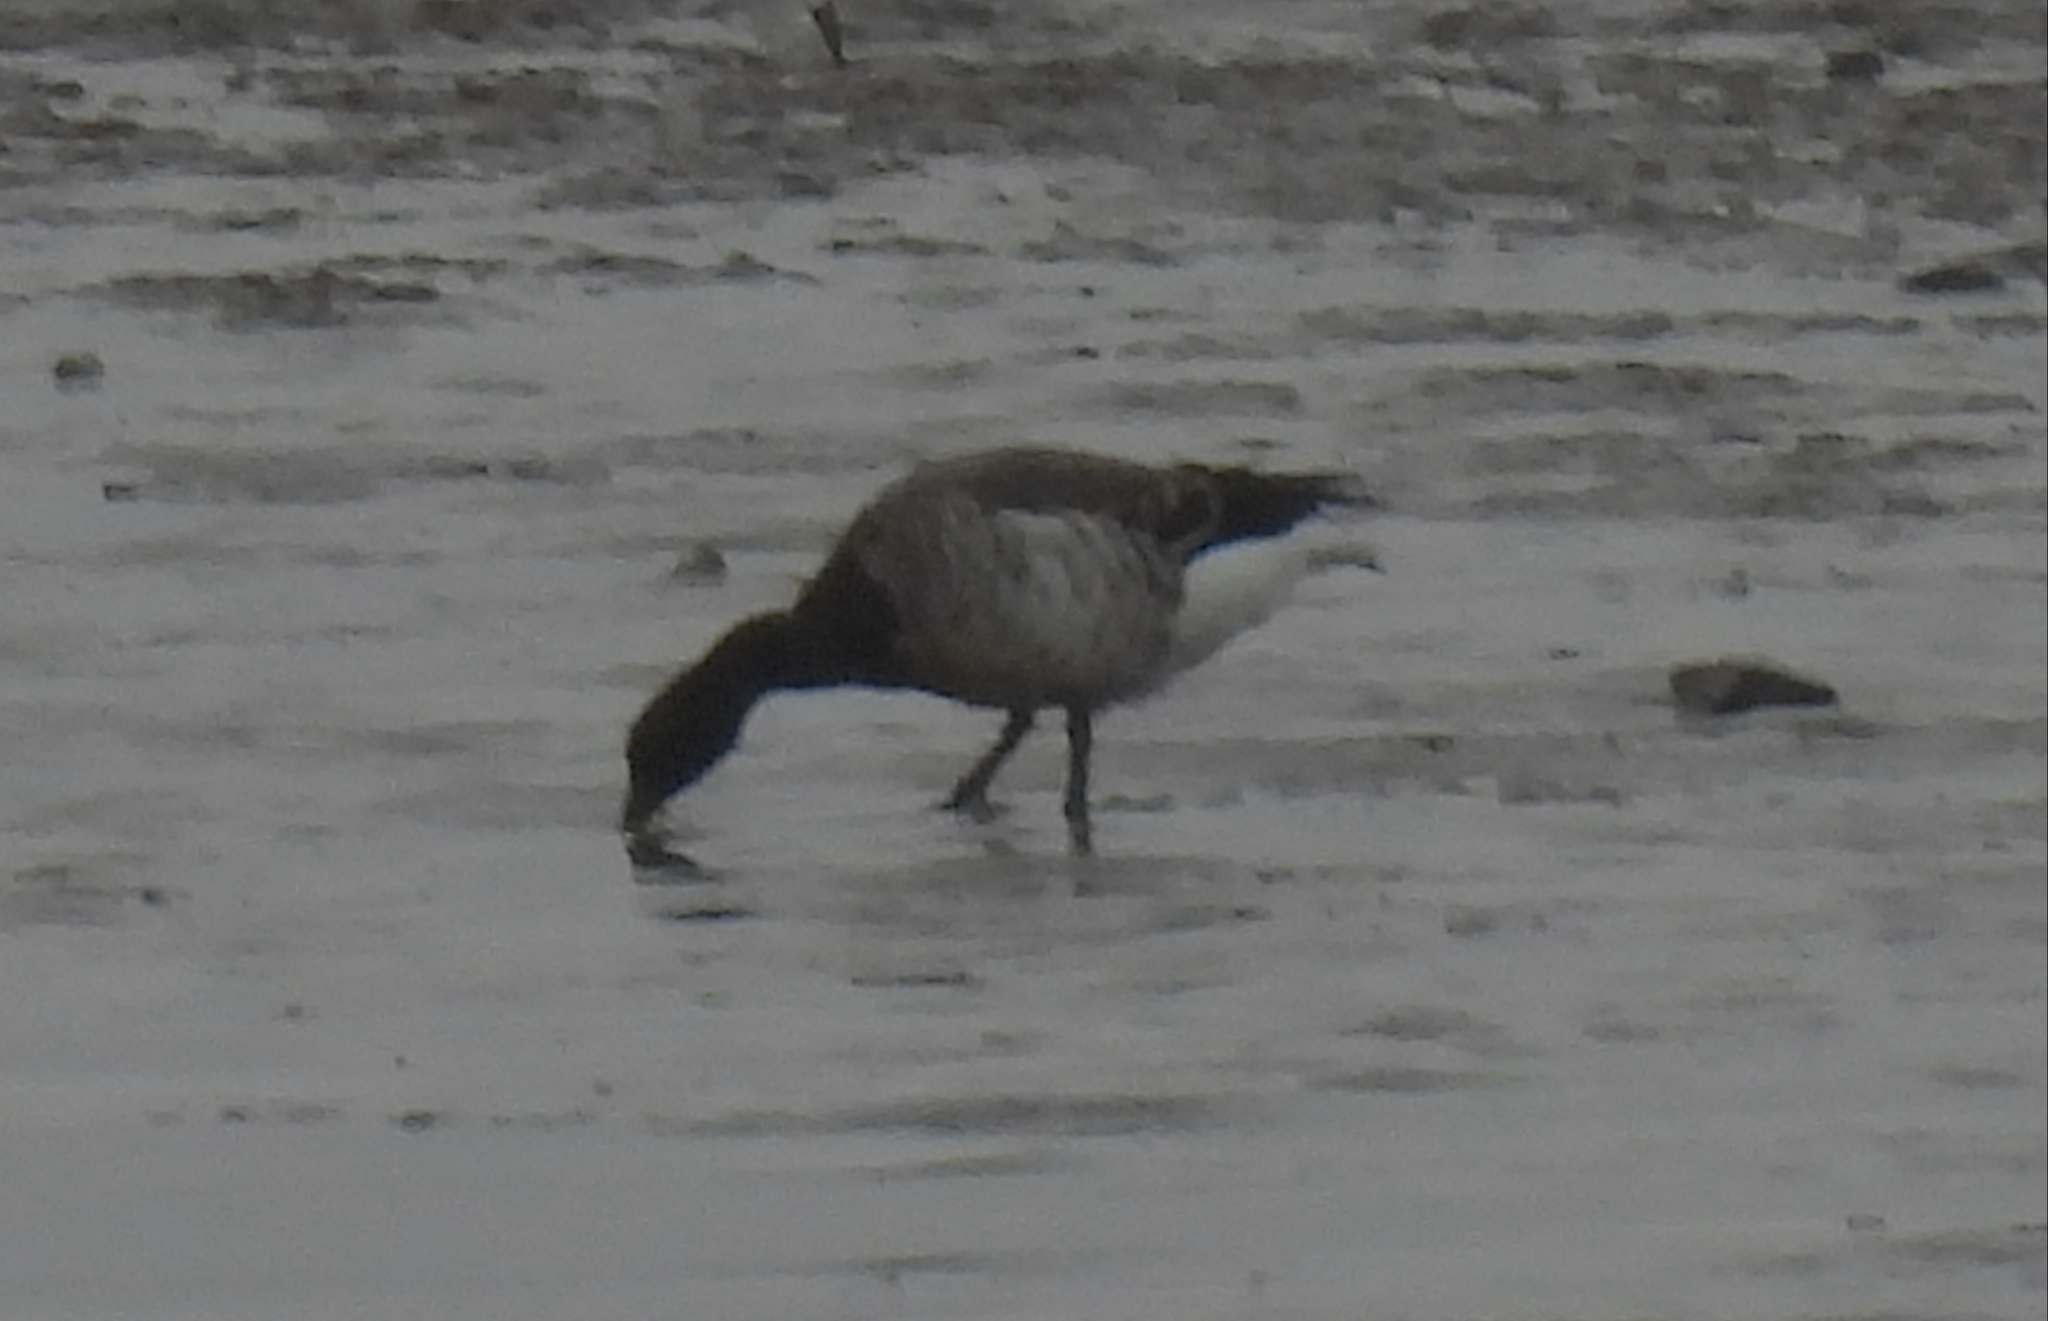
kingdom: Animalia
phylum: Chordata
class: Aves
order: Anseriformes
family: Anatidae
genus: Branta
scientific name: Branta bernicla
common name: Brant goose
